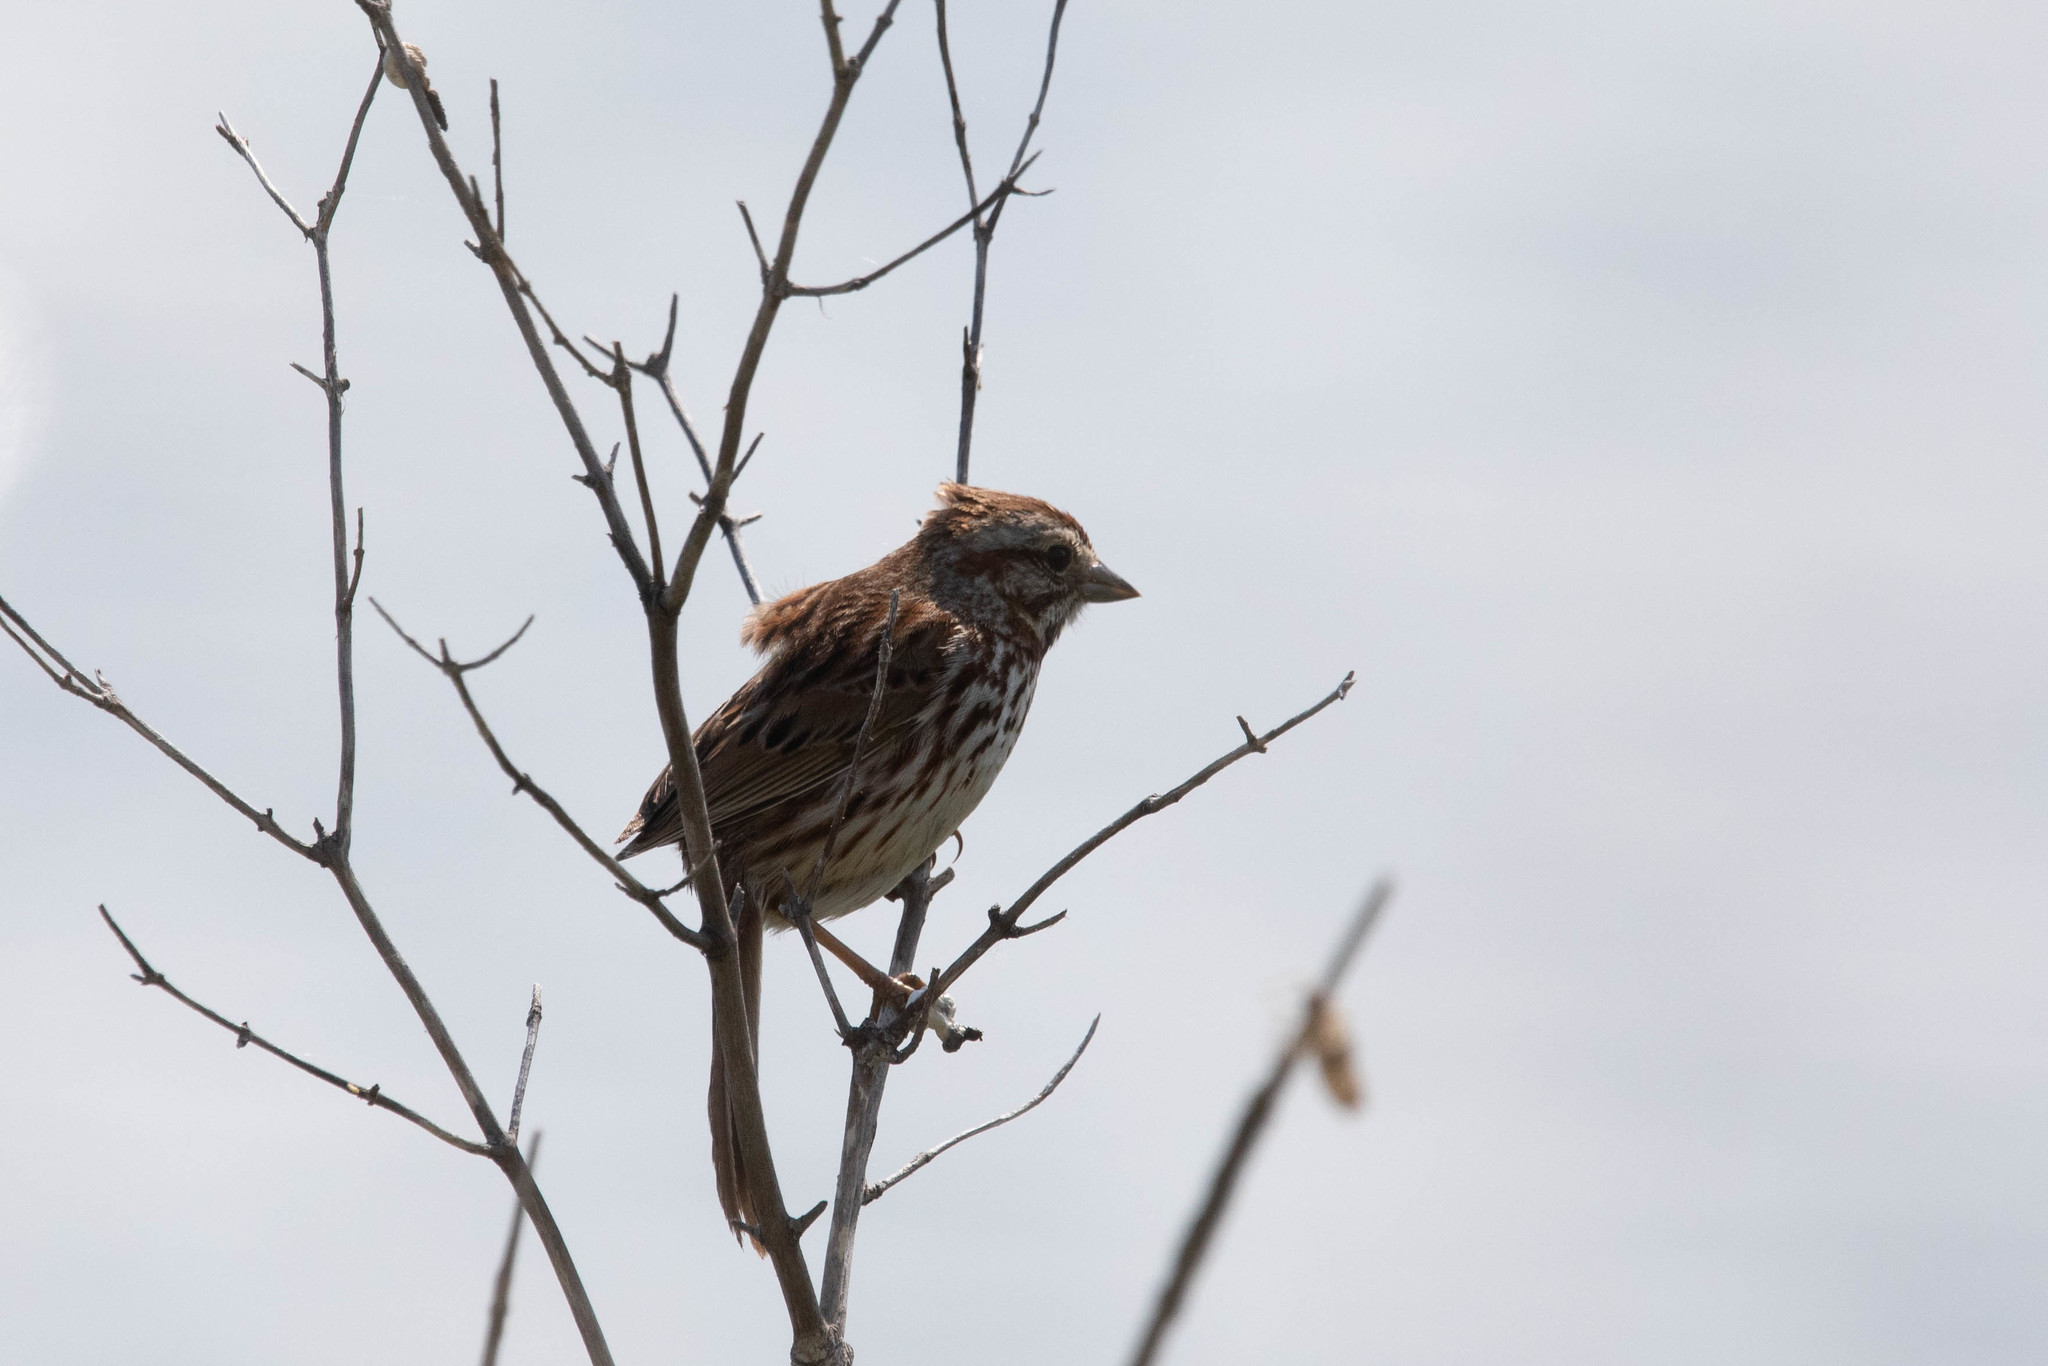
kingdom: Animalia
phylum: Chordata
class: Aves
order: Passeriformes
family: Passerellidae
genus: Melospiza
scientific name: Melospiza melodia
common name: Song sparrow
